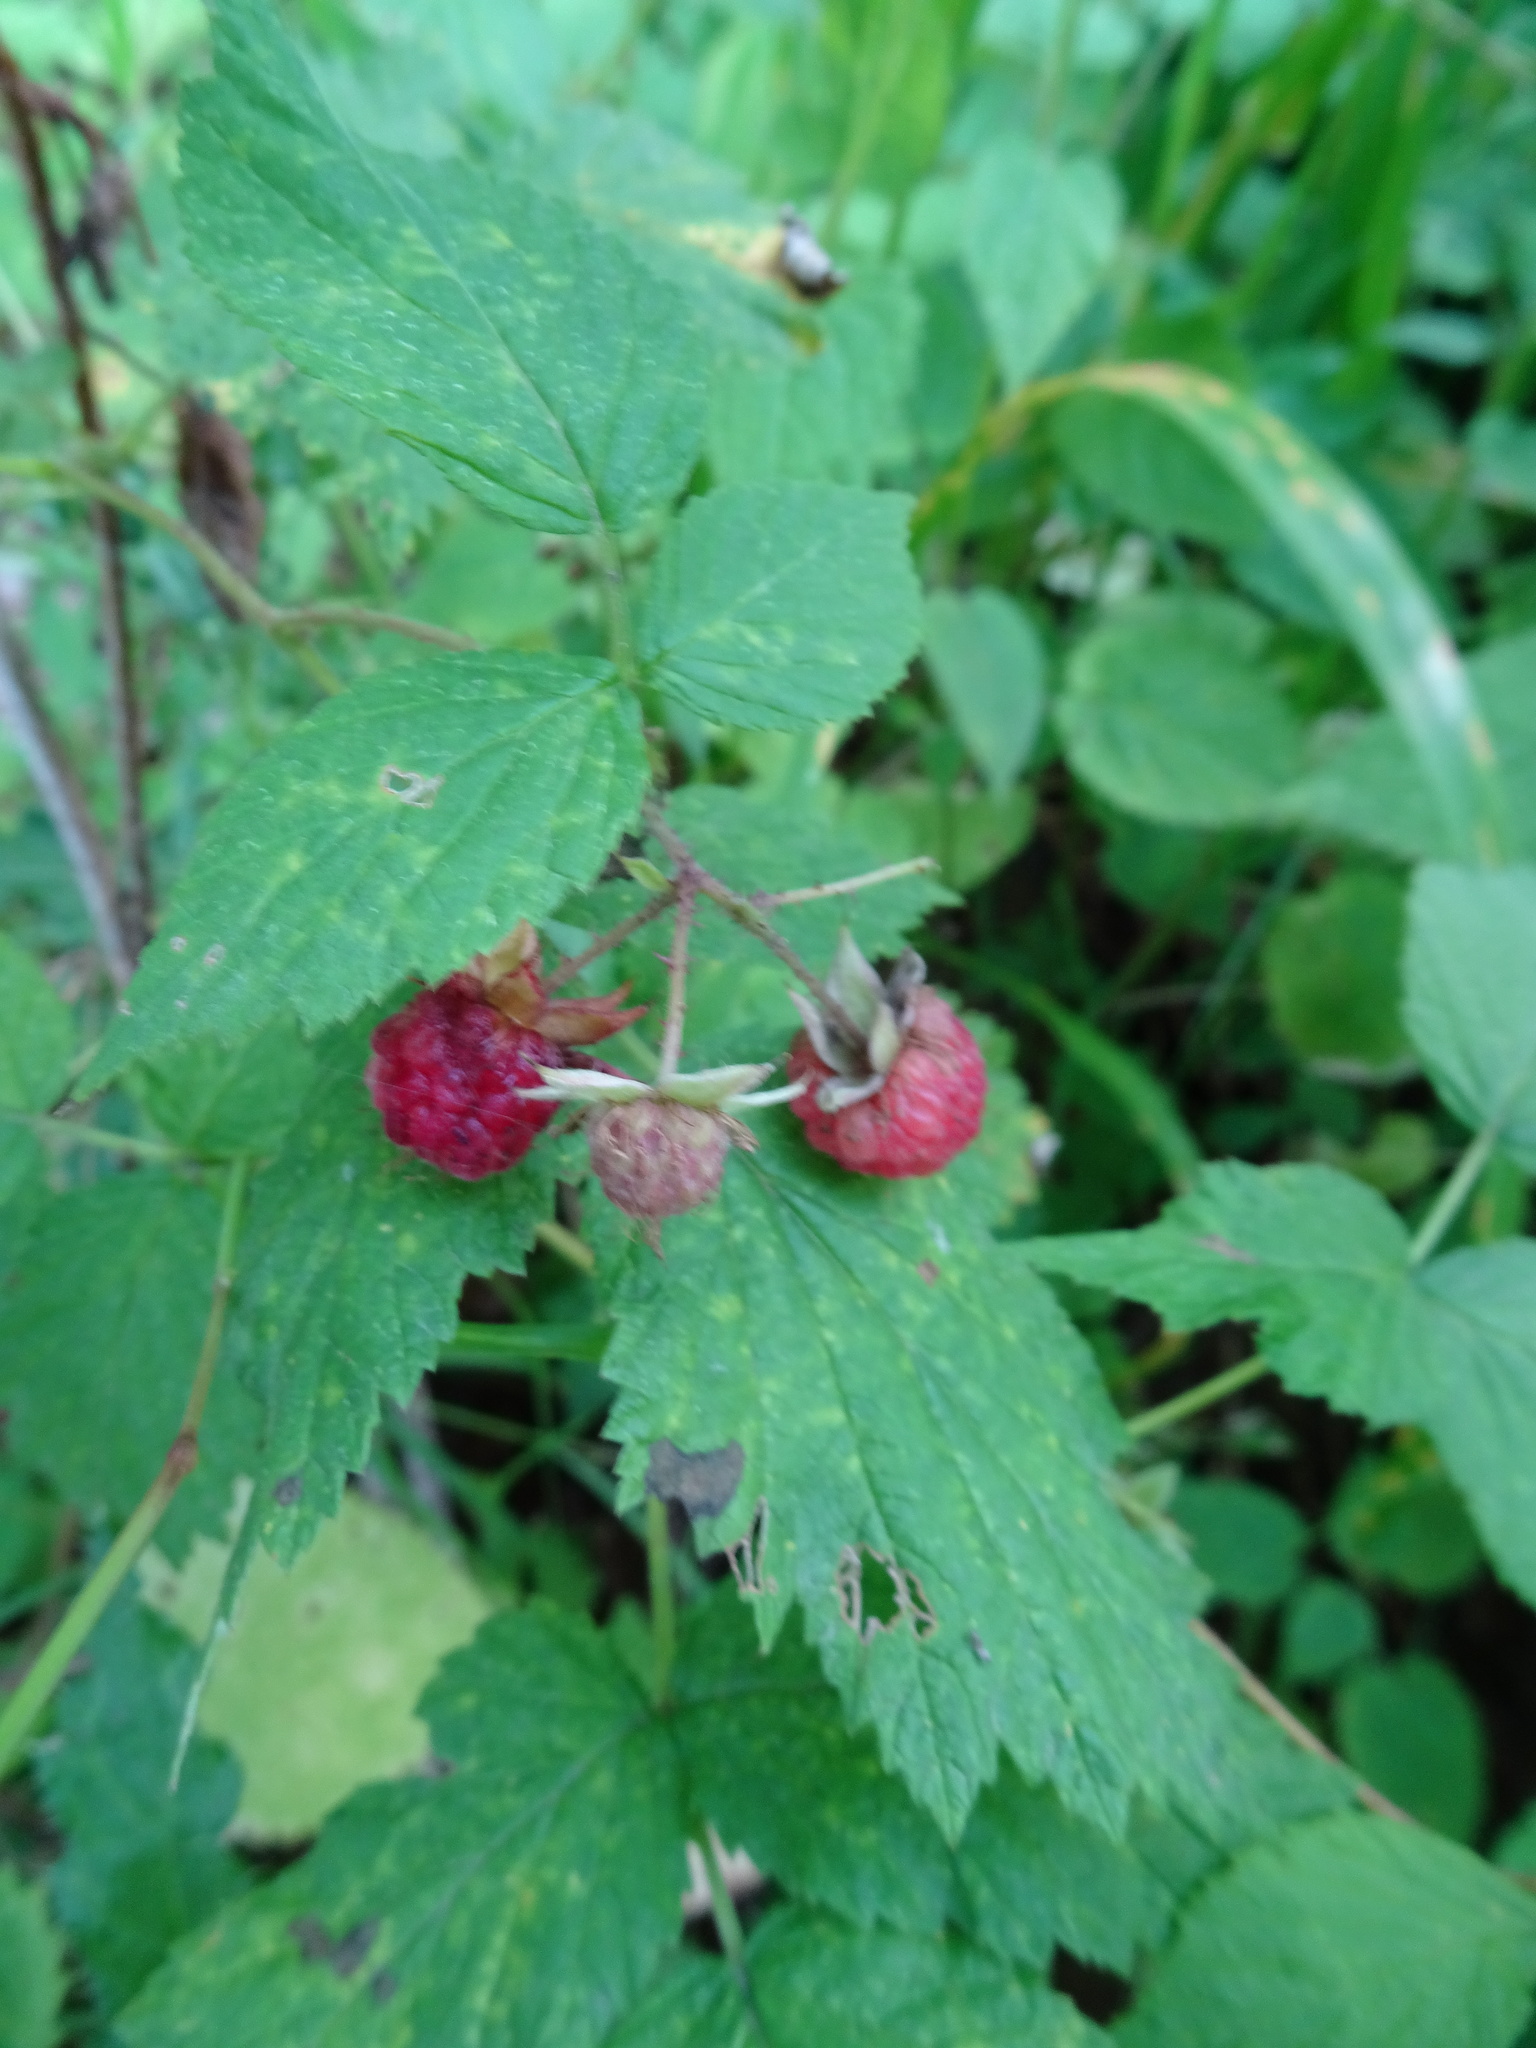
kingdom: Plantae
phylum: Tracheophyta
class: Magnoliopsida
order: Rosales
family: Rosaceae
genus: Rubus
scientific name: Rubus idaeus
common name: Raspberry
